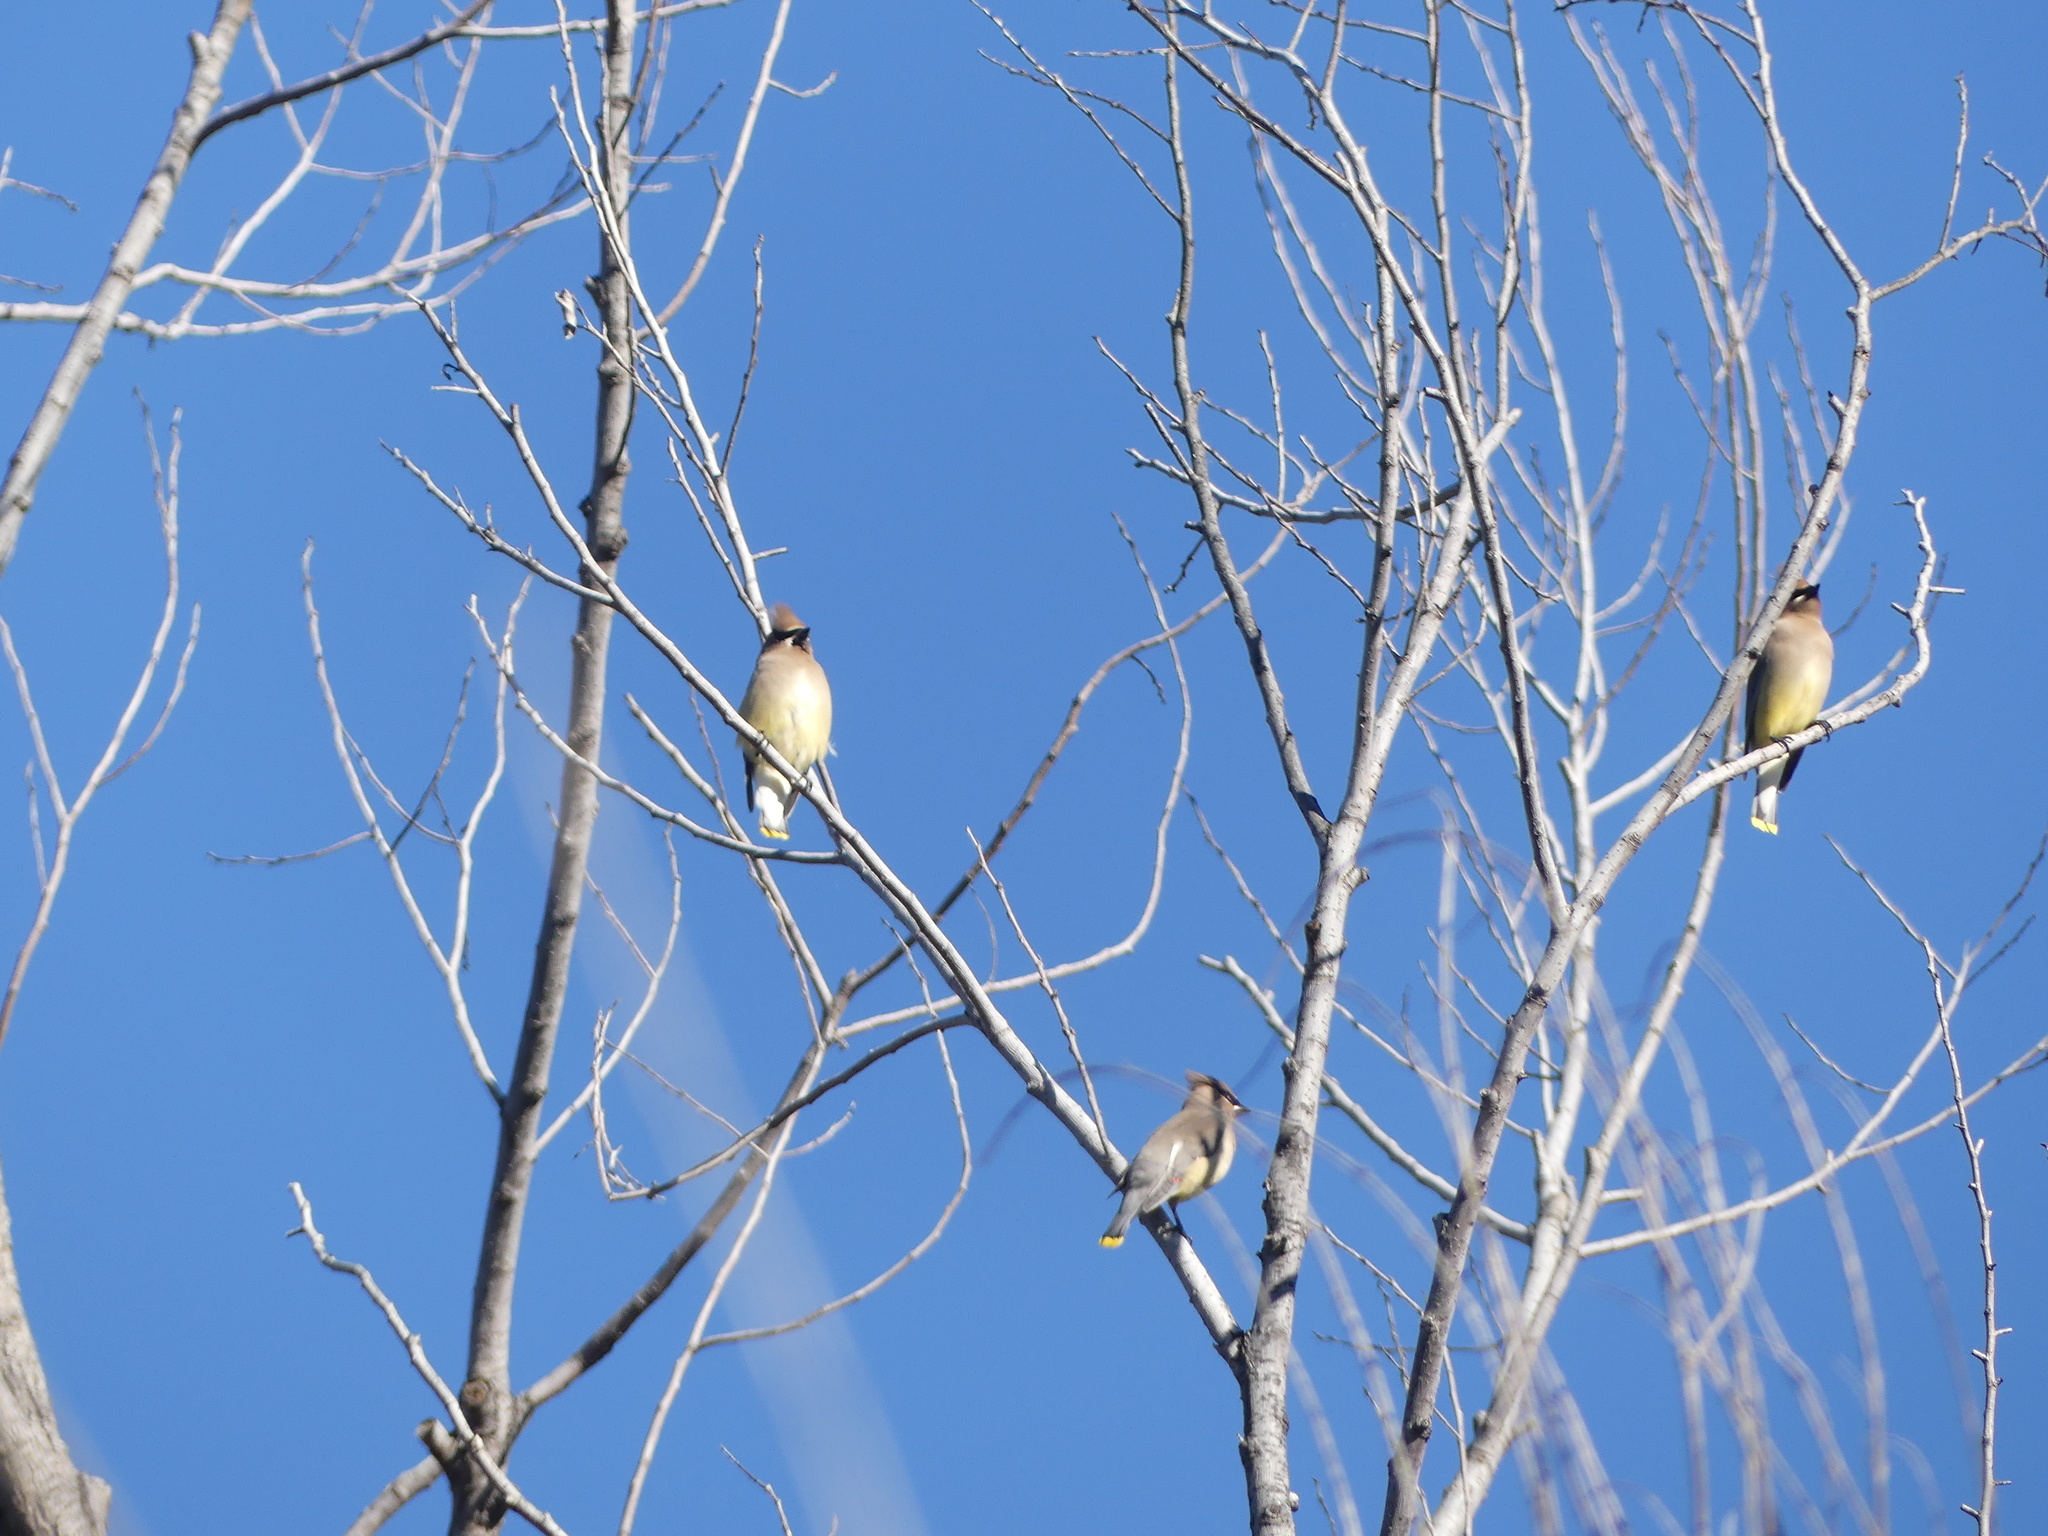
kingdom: Animalia
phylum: Chordata
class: Aves
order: Passeriformes
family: Bombycillidae
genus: Bombycilla
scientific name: Bombycilla cedrorum
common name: Cedar waxwing
